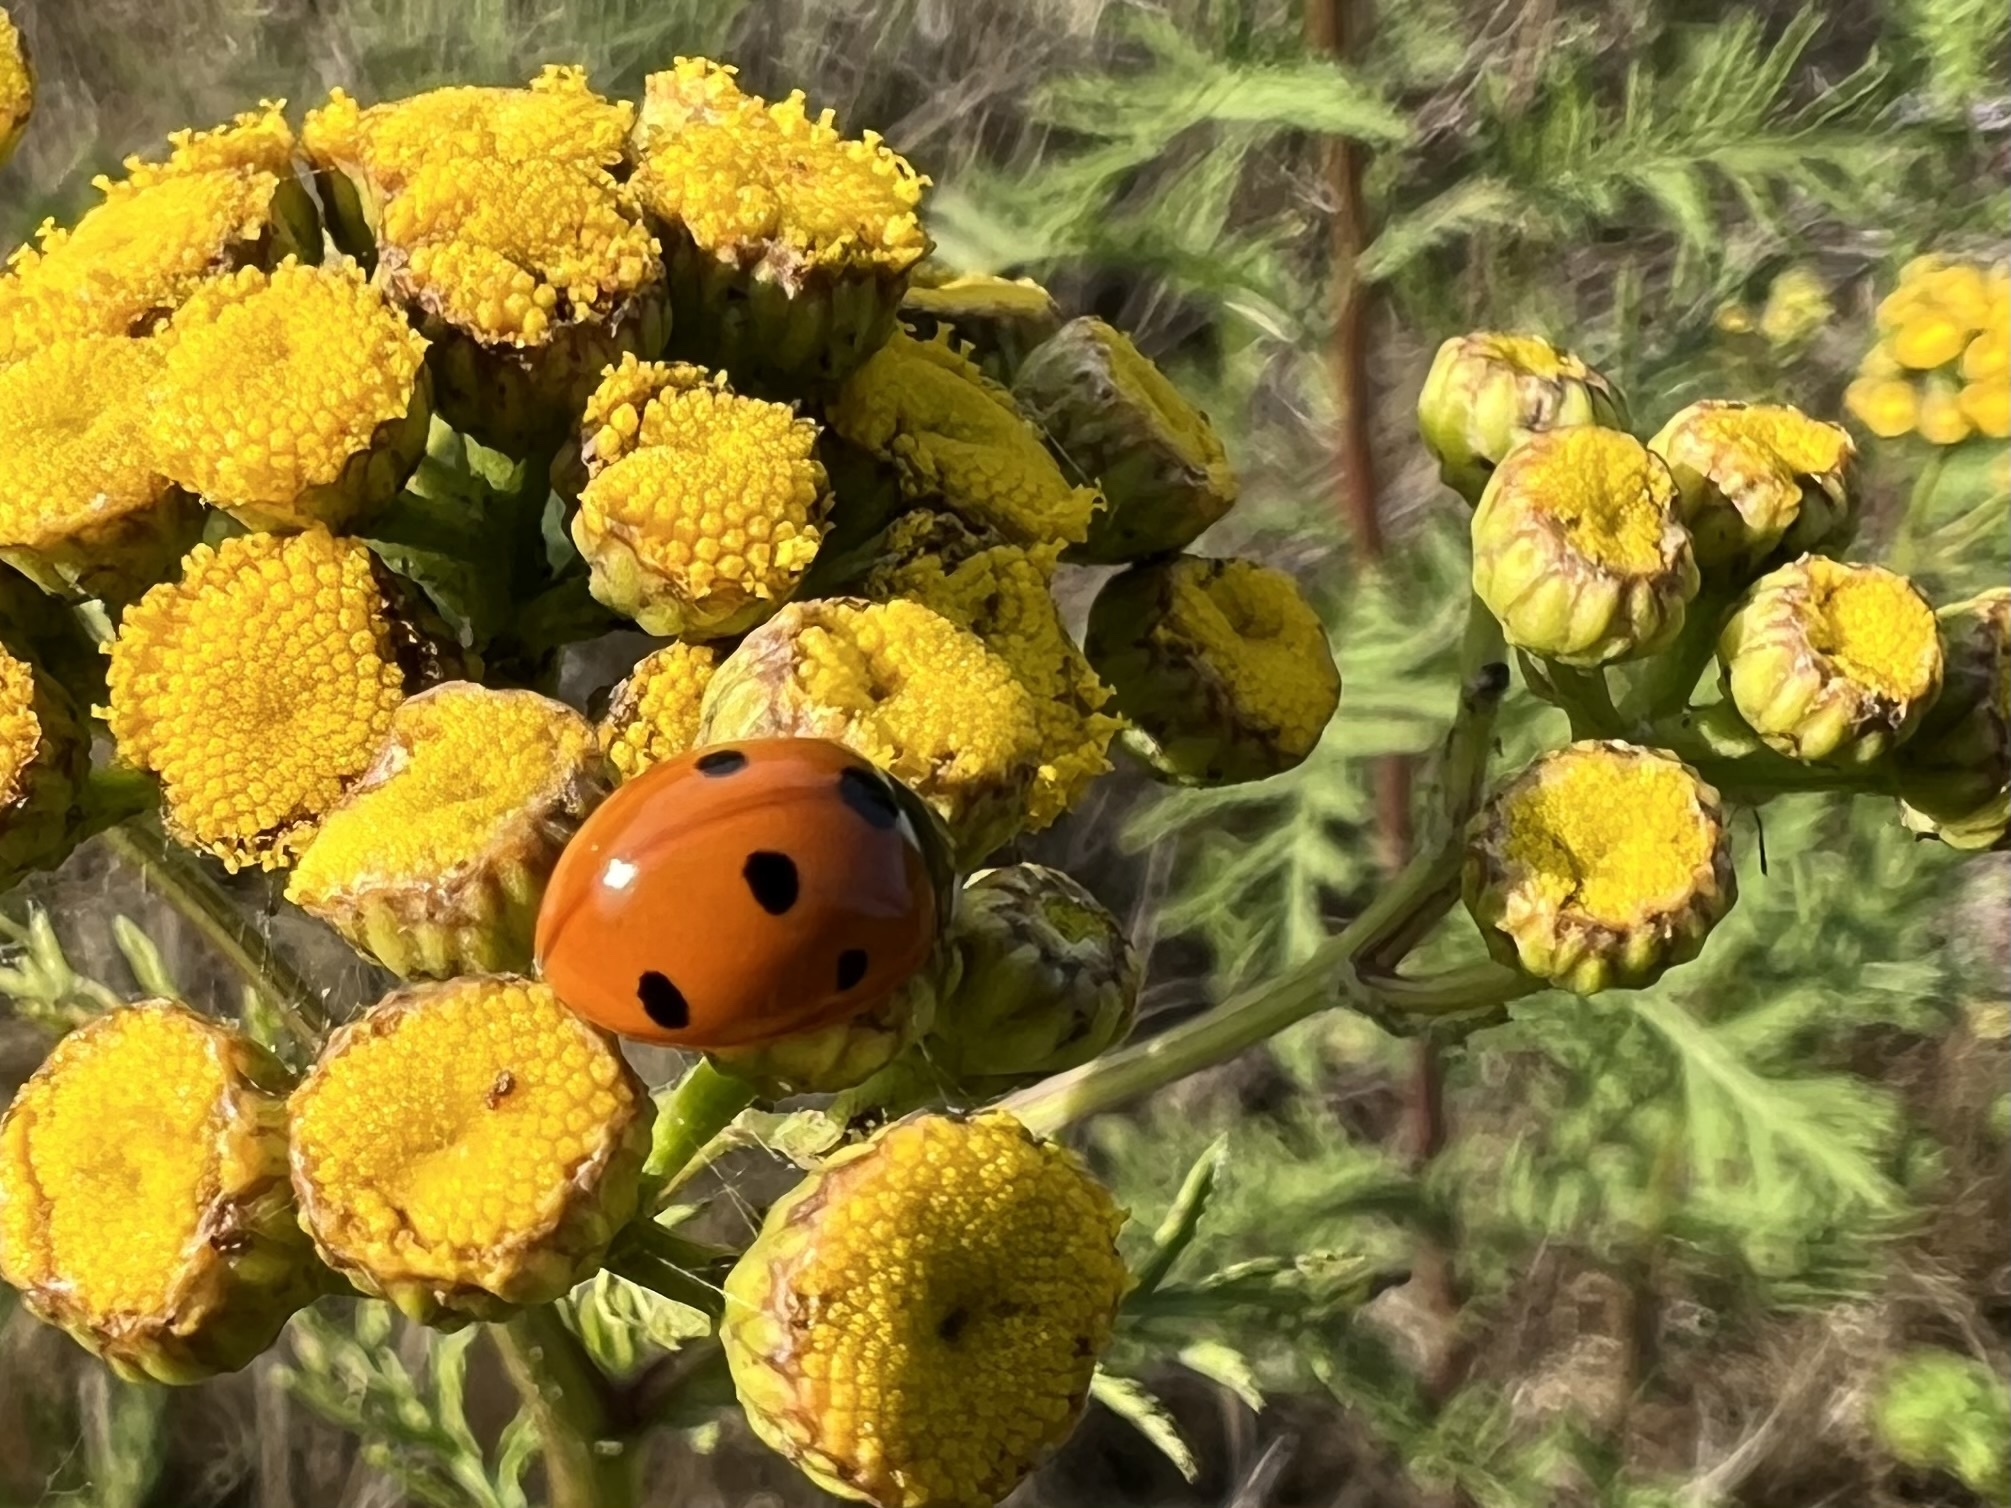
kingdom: Animalia
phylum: Arthropoda
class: Insecta
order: Coleoptera
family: Coccinellidae
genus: Coccinella
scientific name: Coccinella septempunctata
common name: Sevenspotted lady beetle
